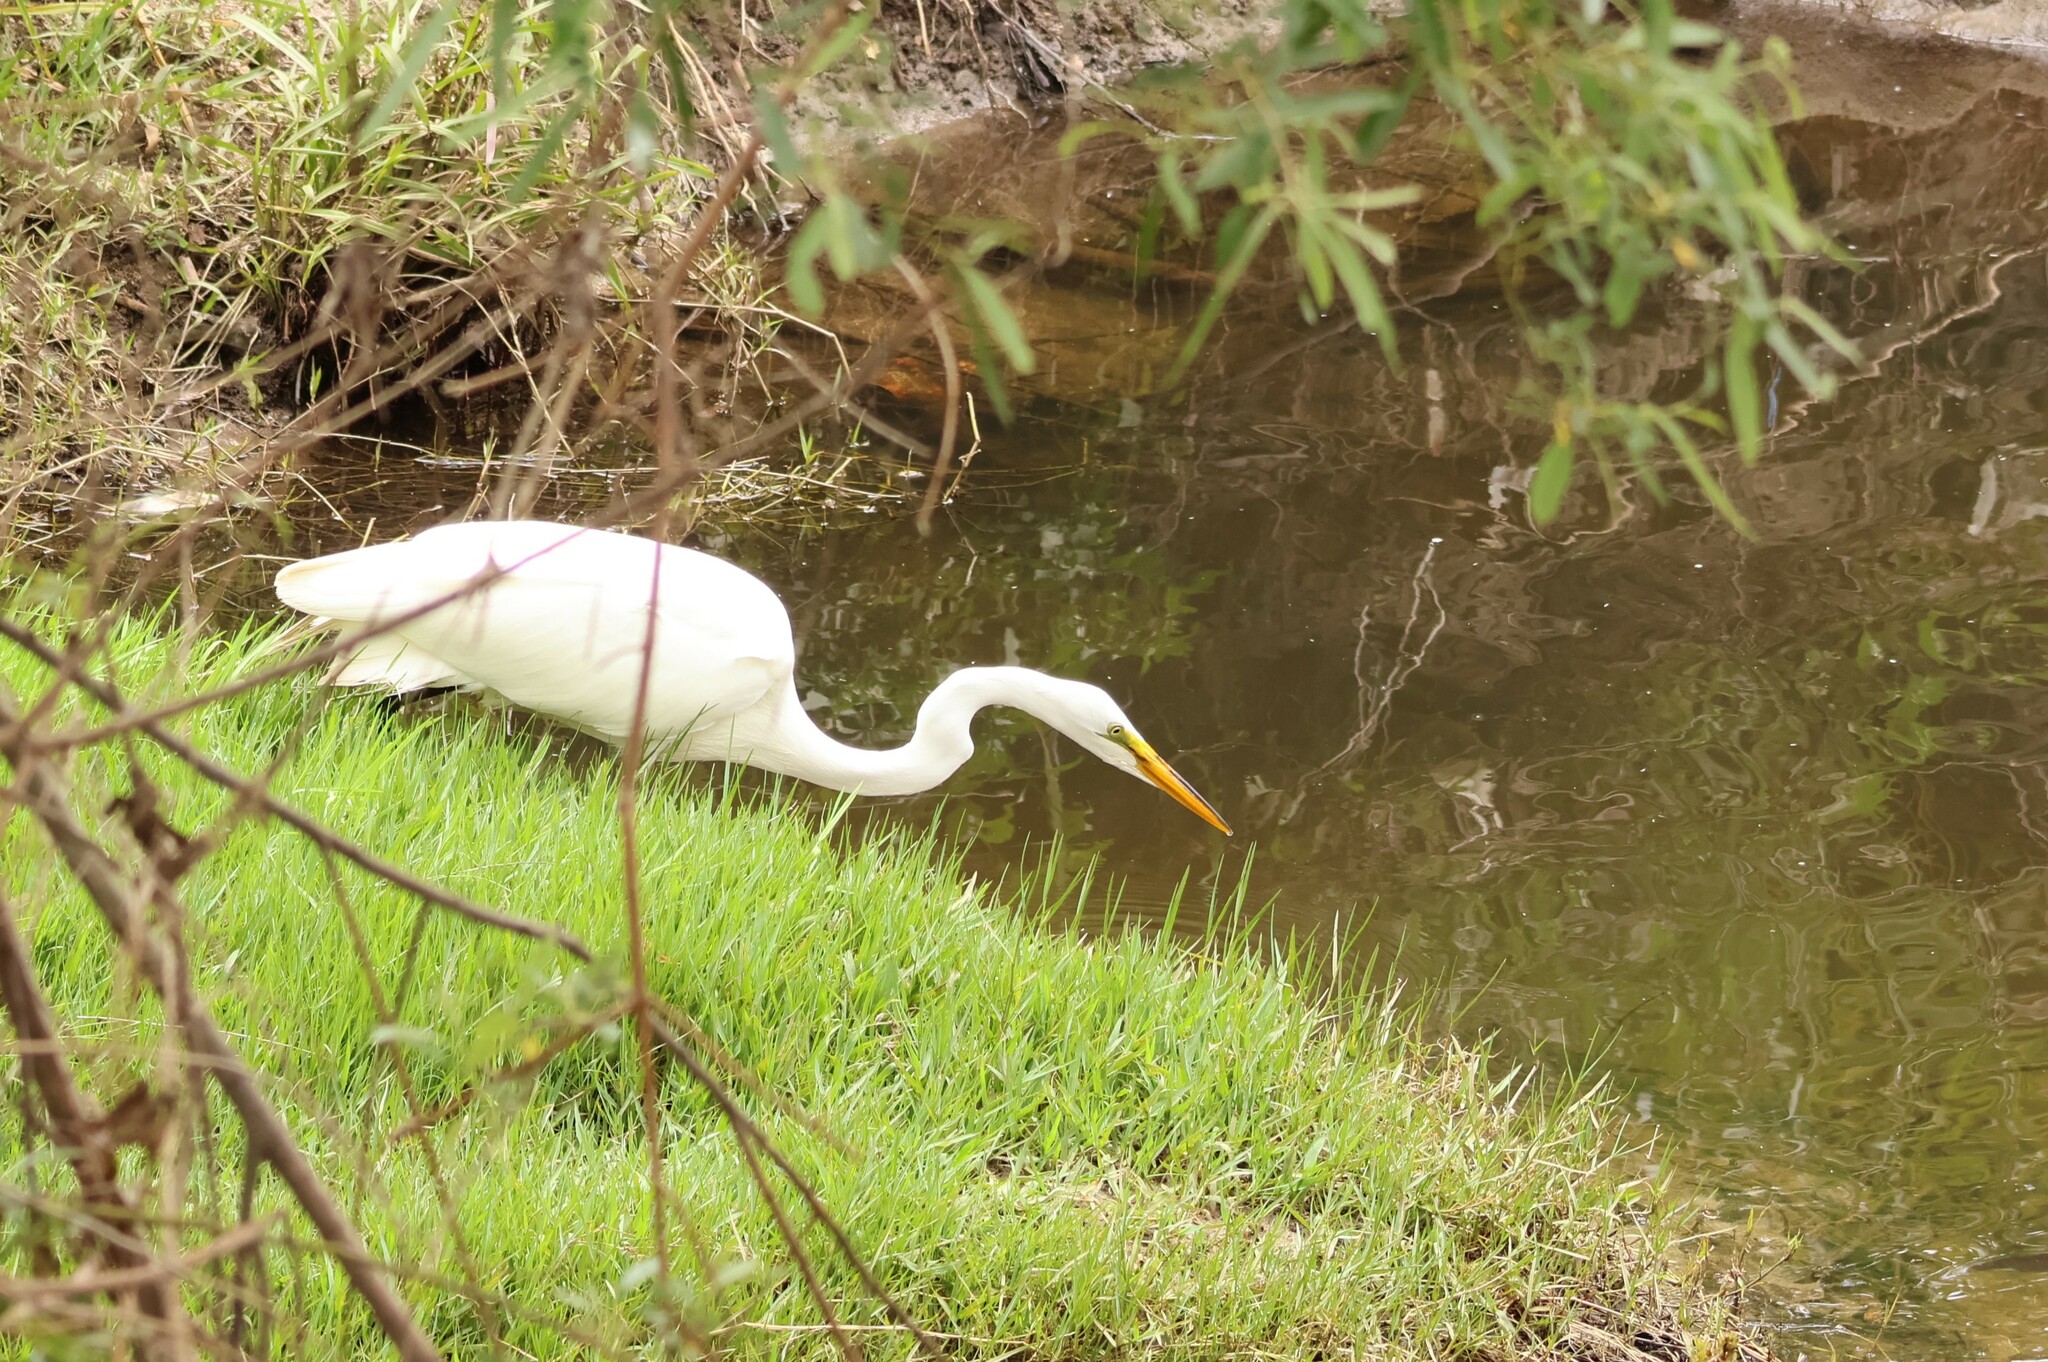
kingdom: Animalia
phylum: Chordata
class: Aves
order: Pelecaniformes
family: Ardeidae
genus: Ardea
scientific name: Ardea alba
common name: Great egret
